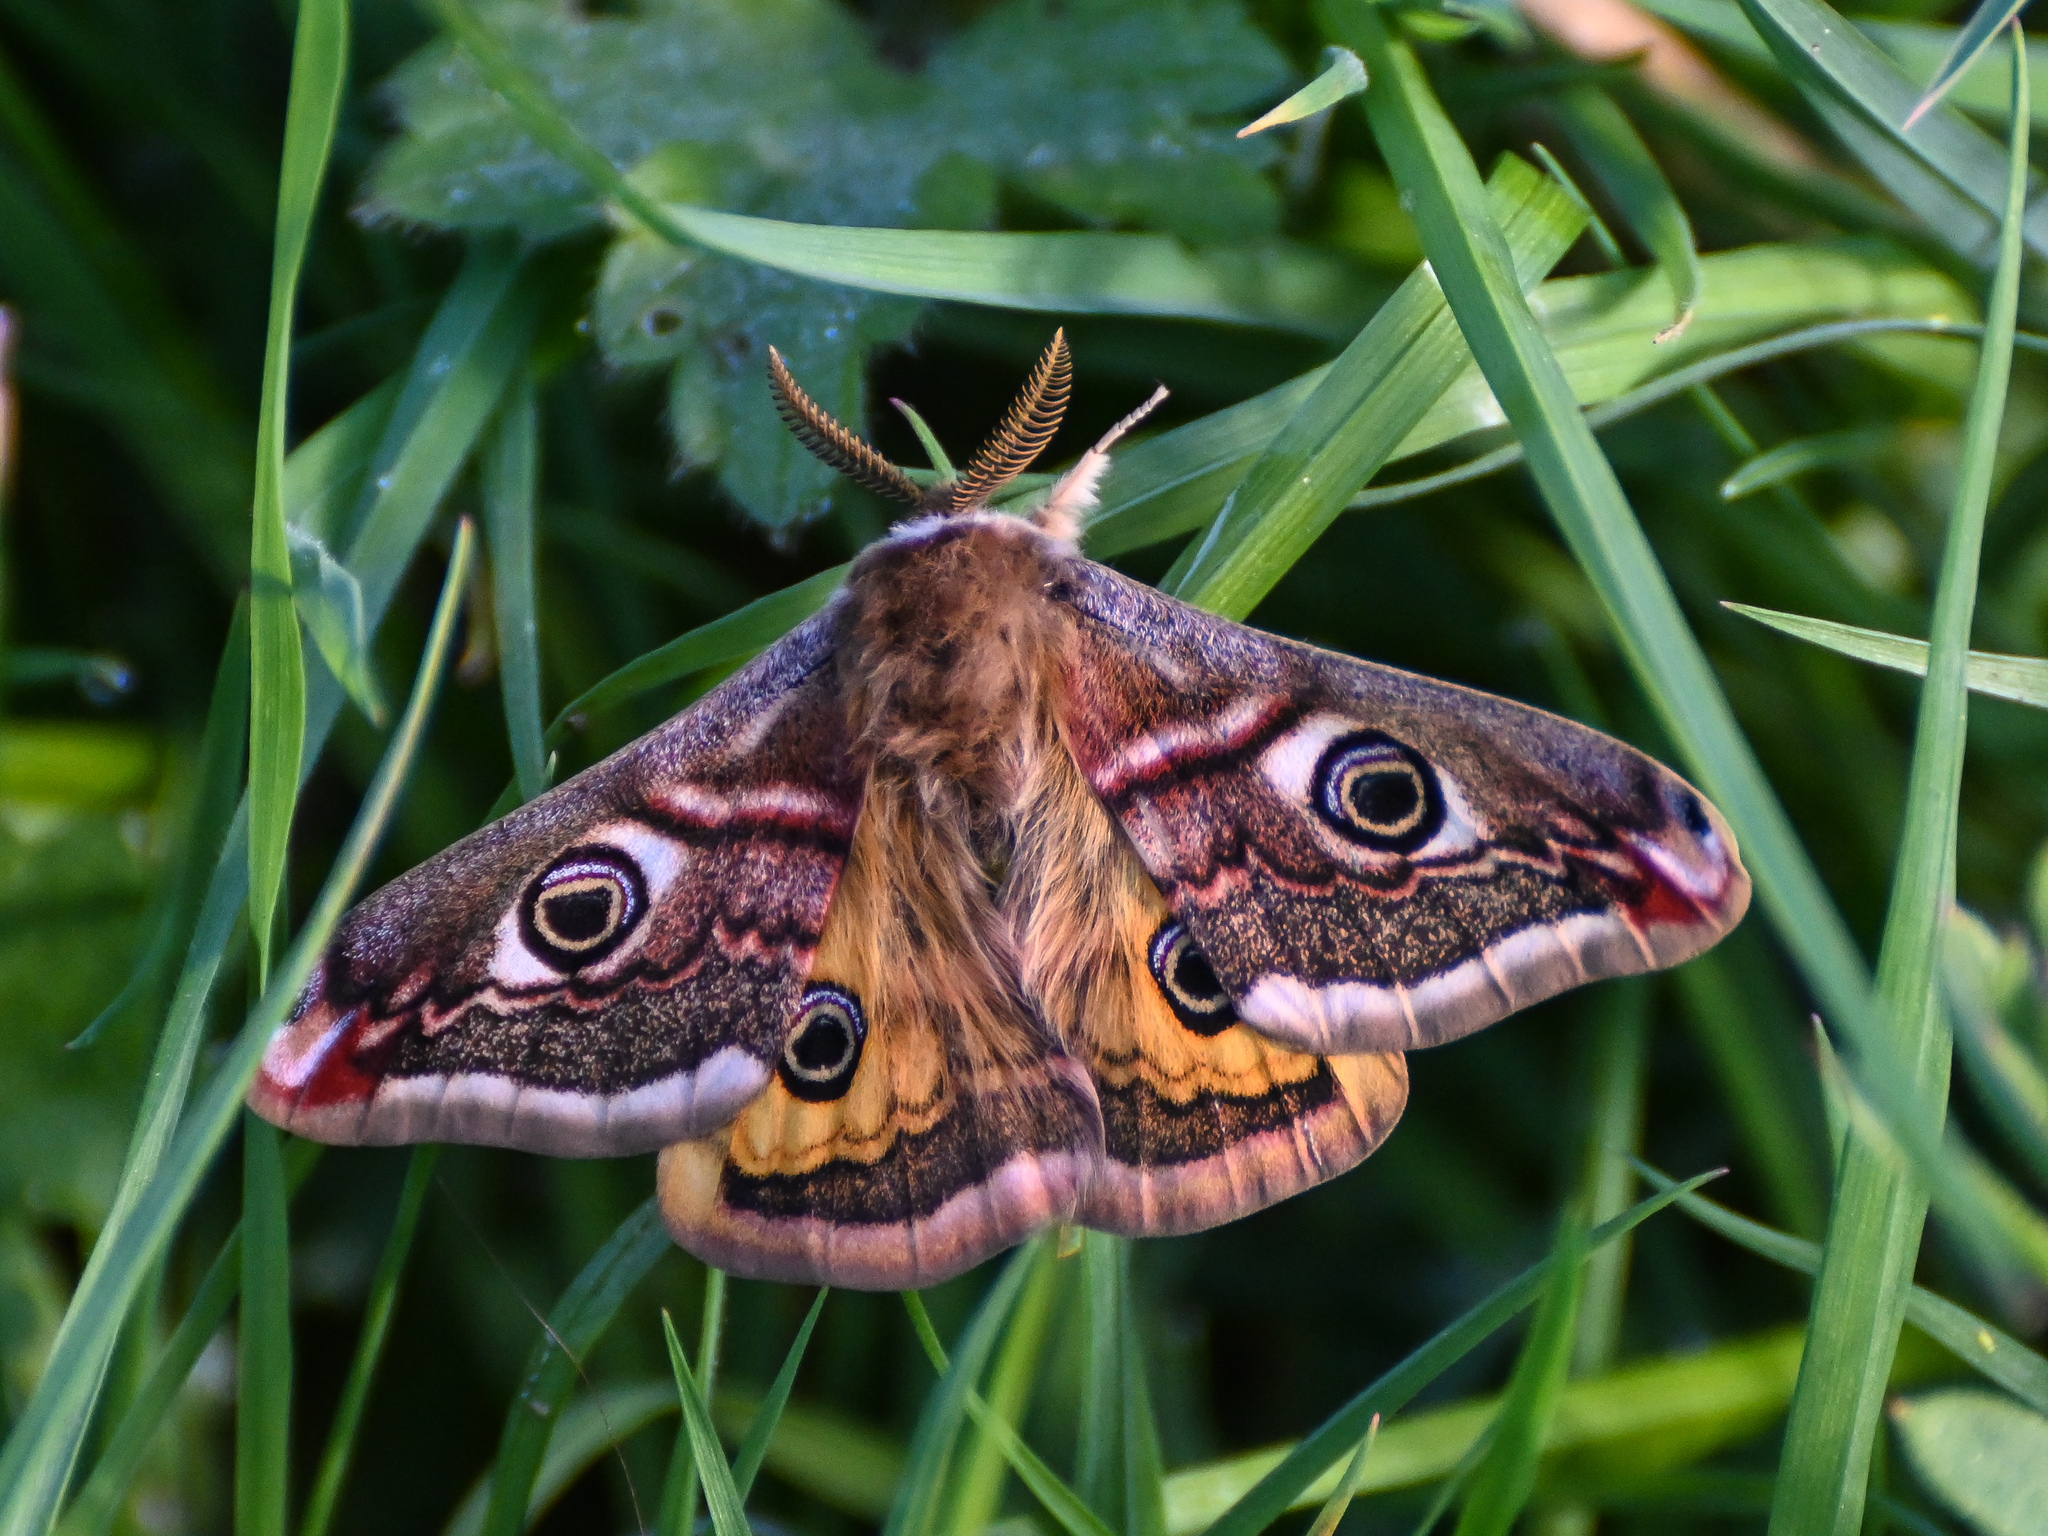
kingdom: Animalia
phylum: Arthropoda
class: Insecta
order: Lepidoptera
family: Saturniidae
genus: Saturnia
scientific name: Saturnia pavonia
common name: Emperor moth
